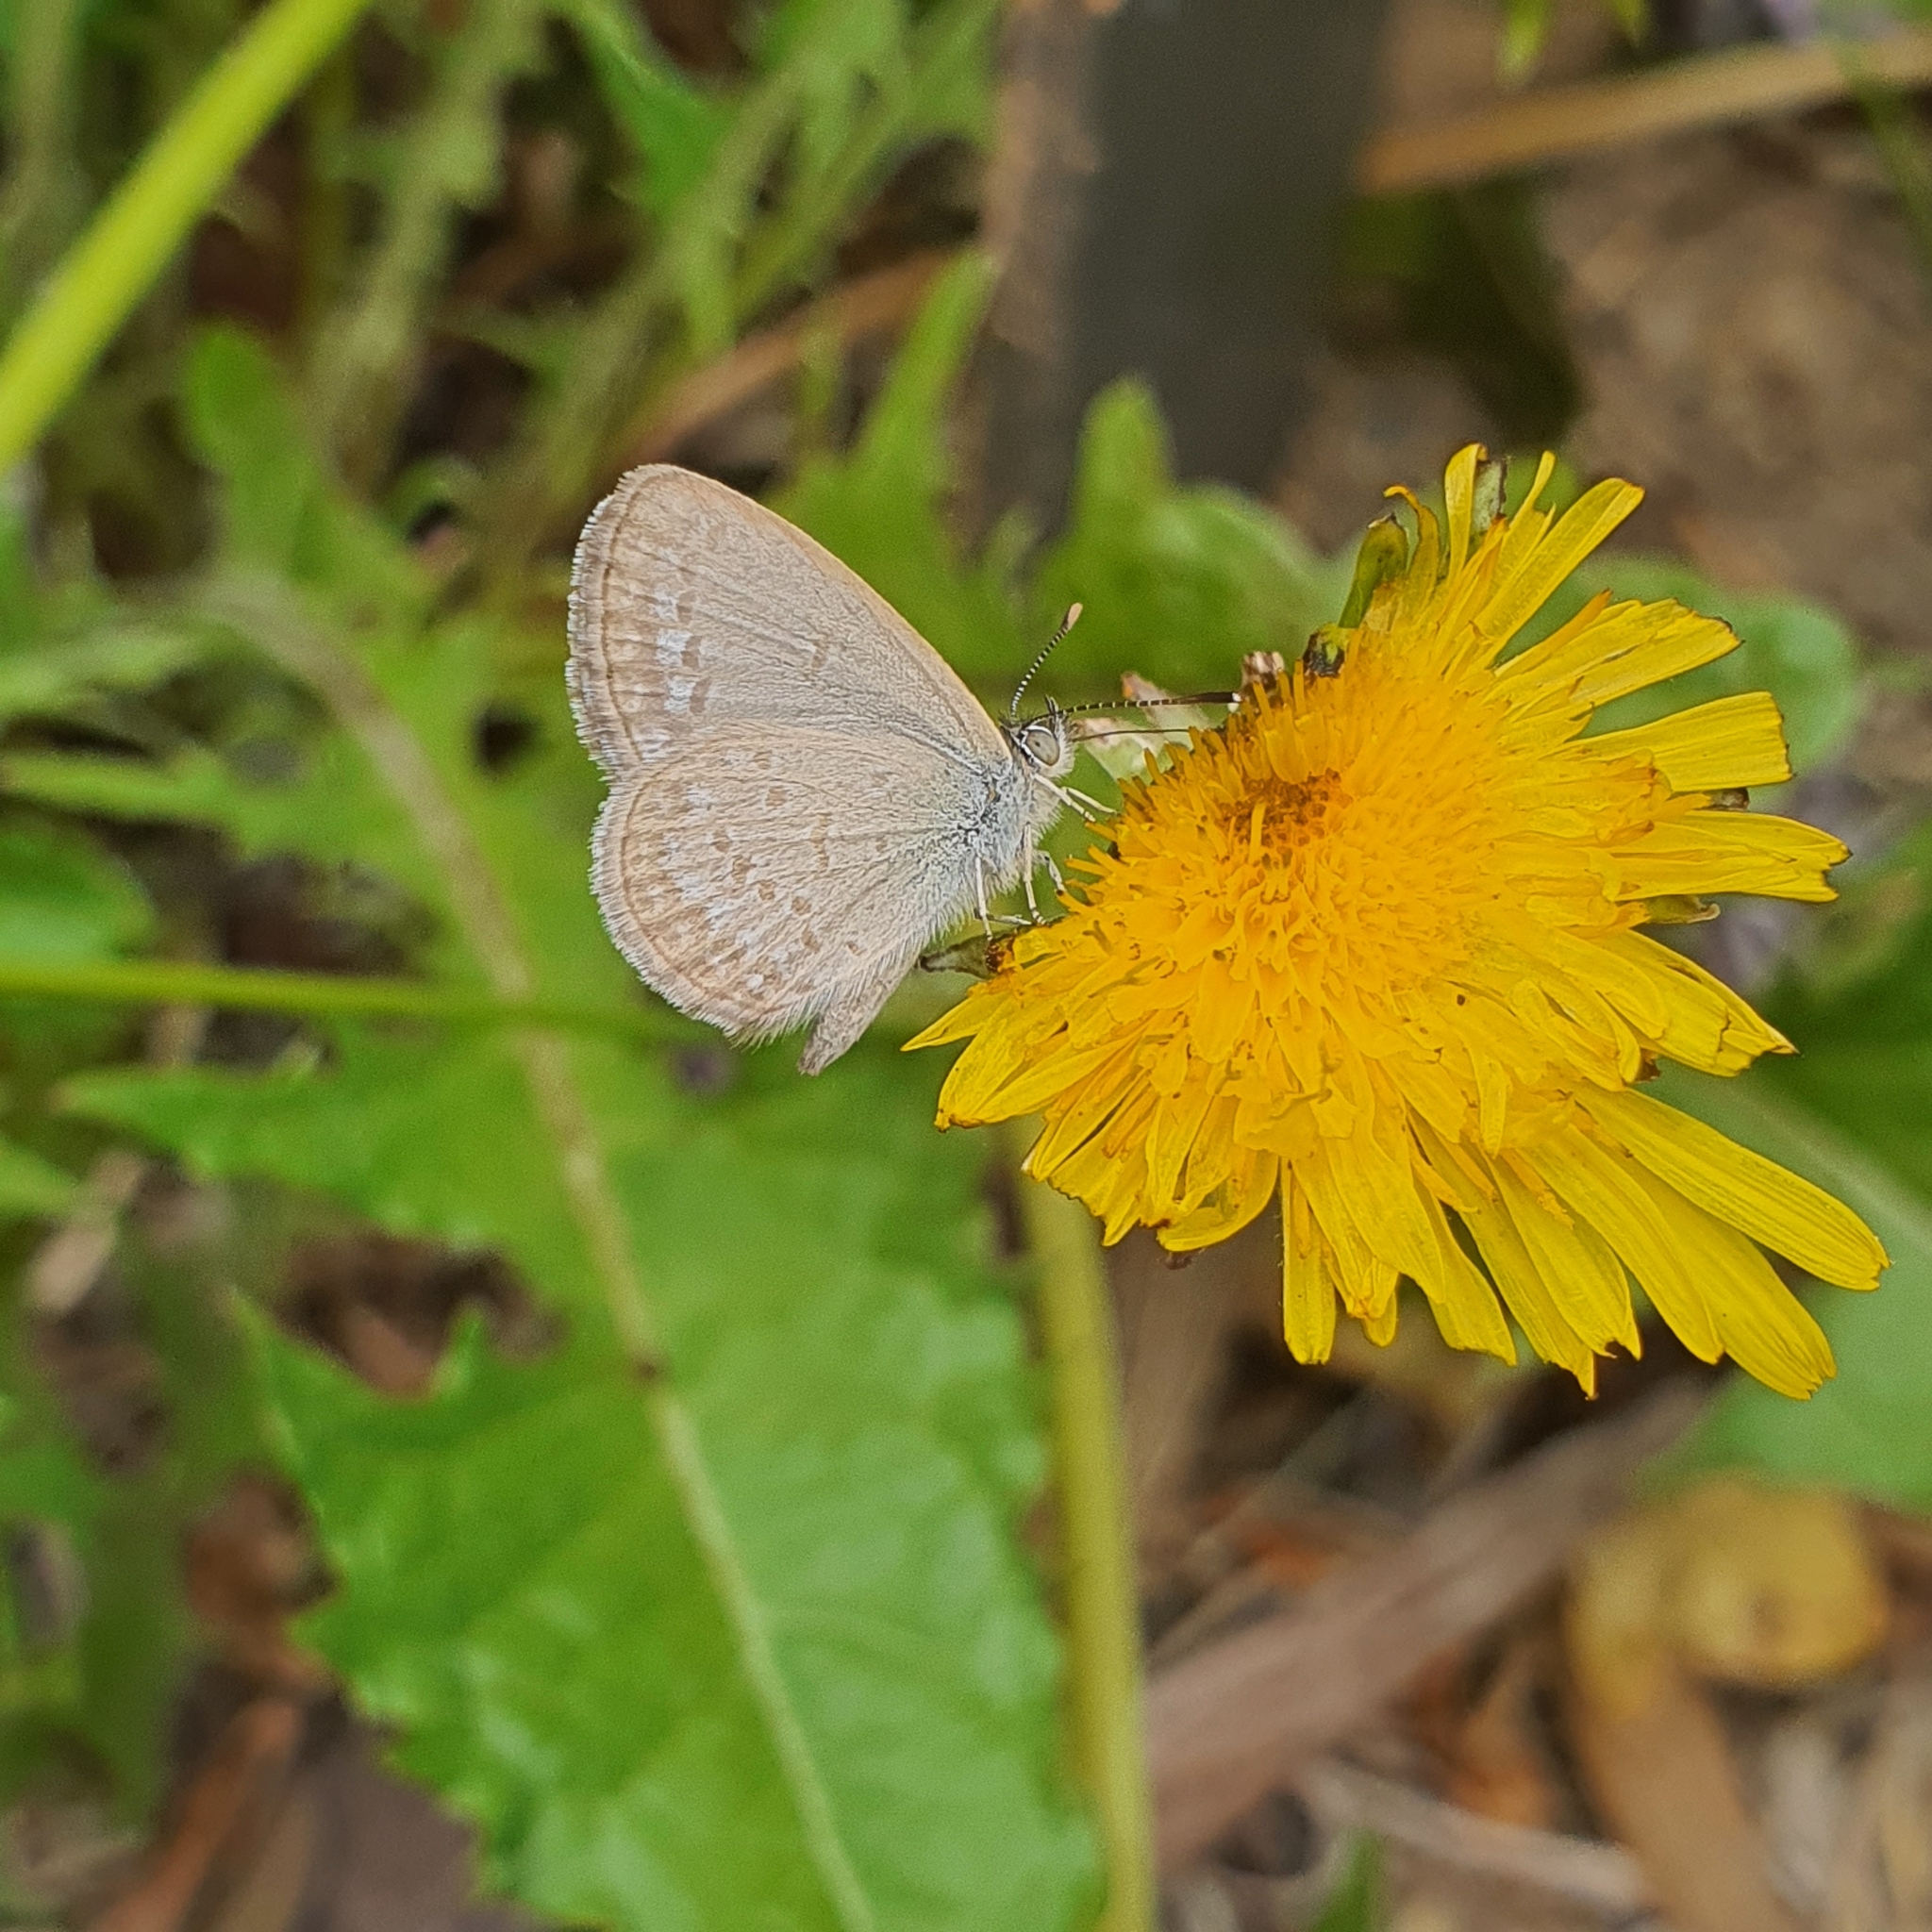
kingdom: Animalia
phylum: Arthropoda
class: Insecta
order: Lepidoptera
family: Lycaenidae
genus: Zizina
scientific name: Zizina labradus
